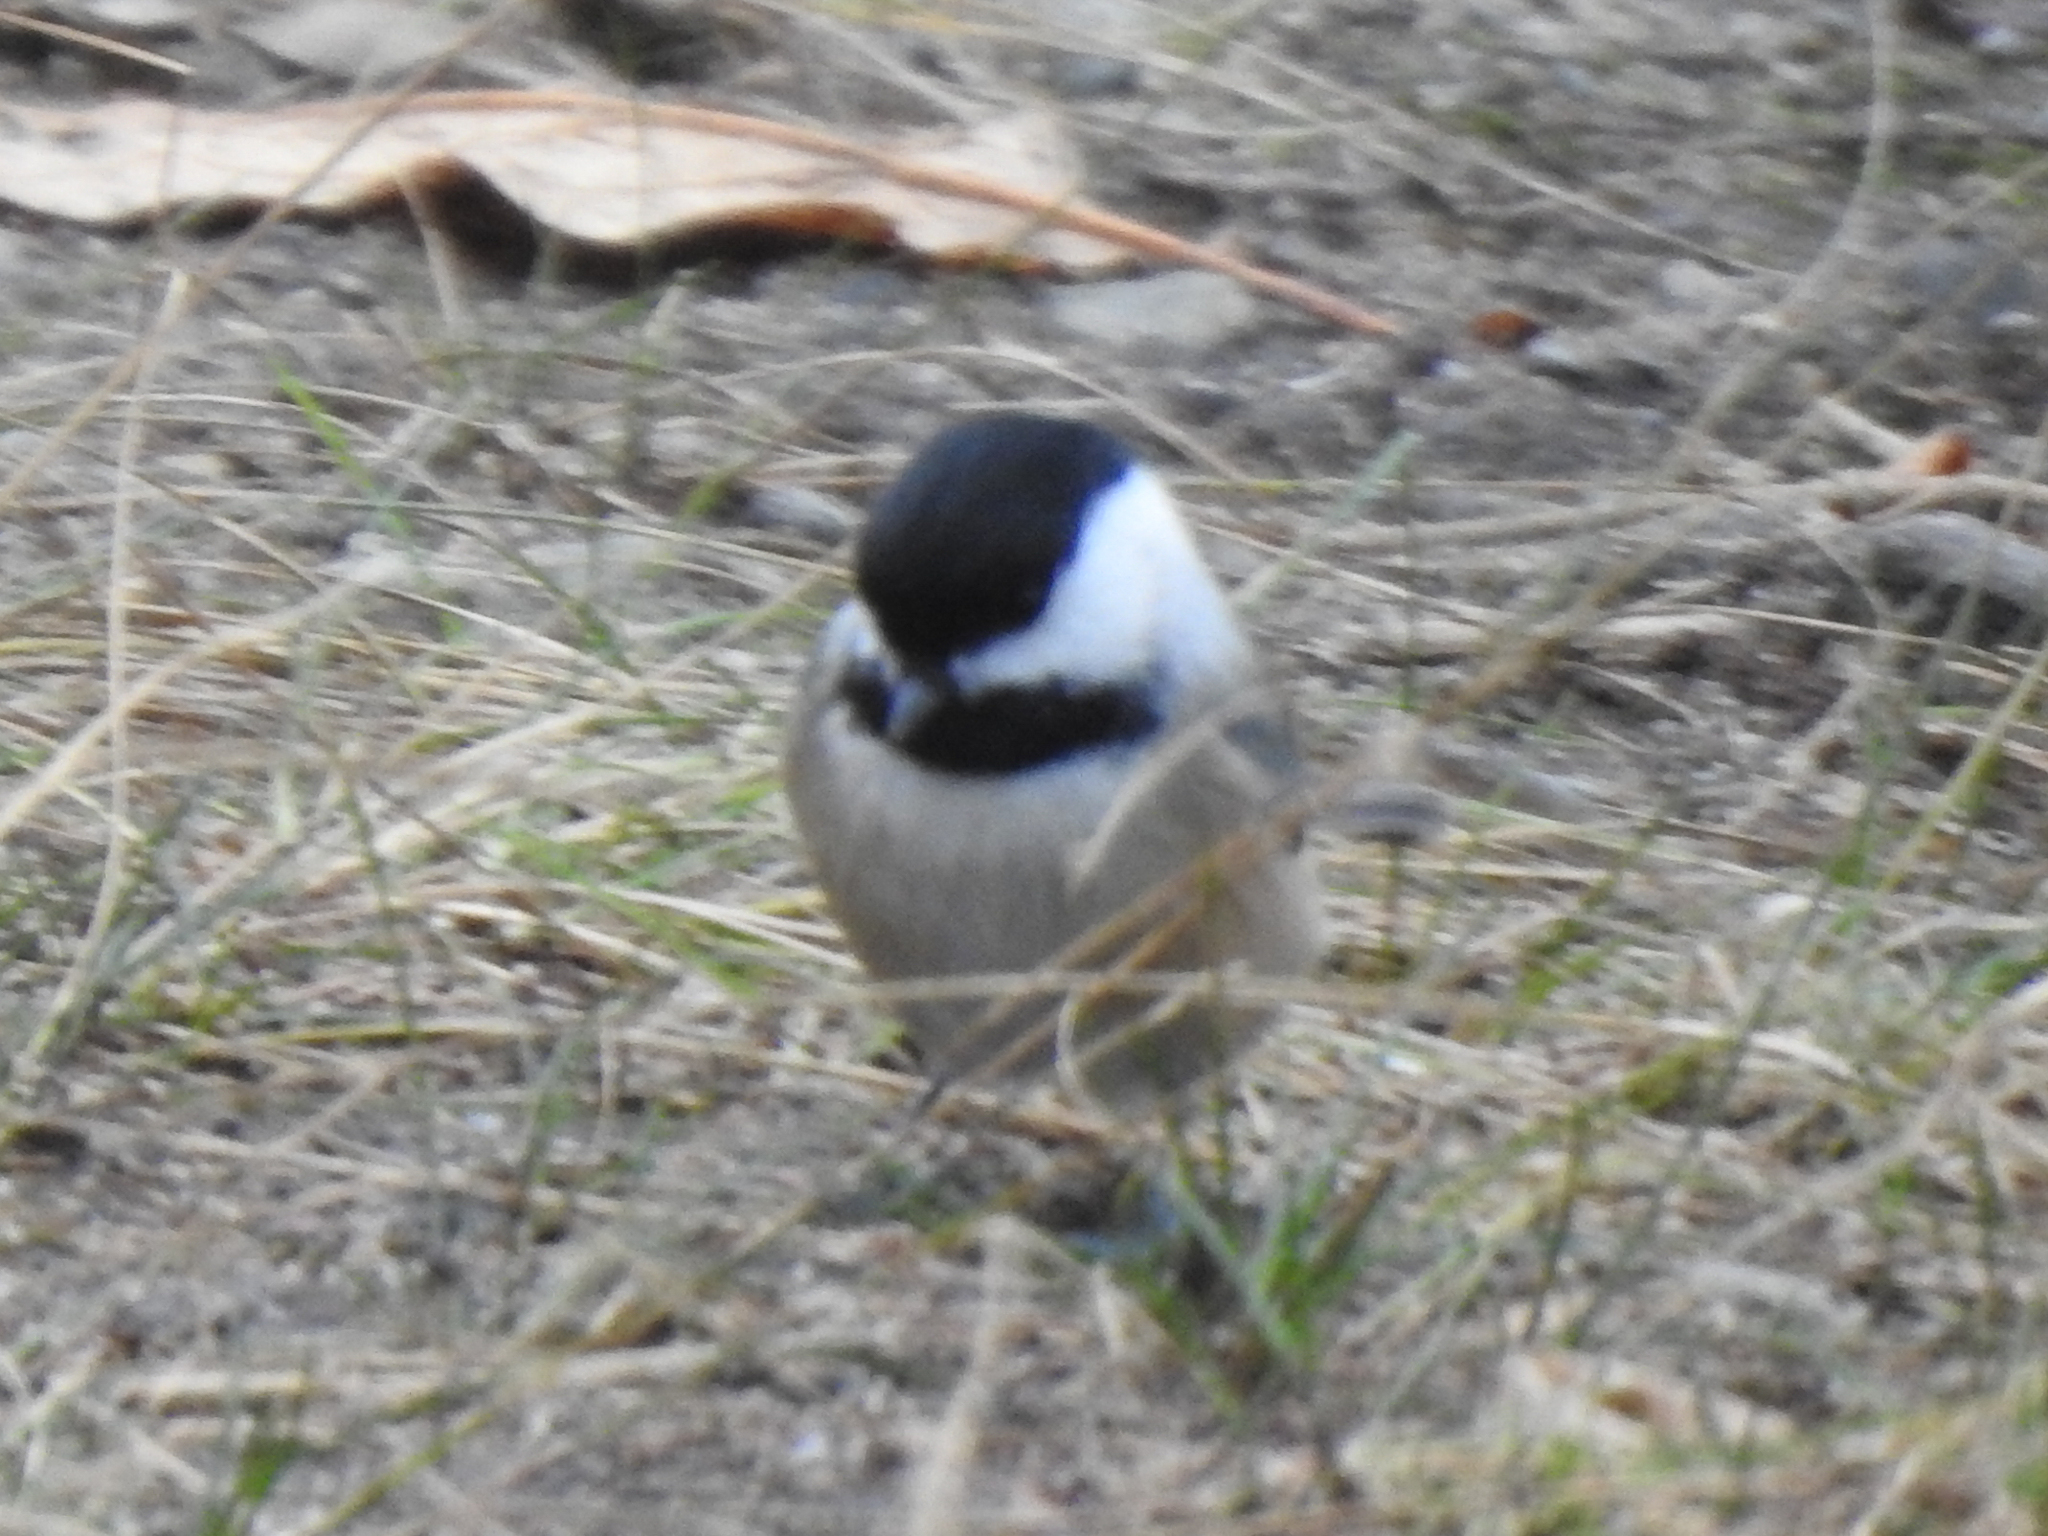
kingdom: Animalia
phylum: Chordata
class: Aves
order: Passeriformes
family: Paridae
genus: Poecile
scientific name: Poecile atricapillus
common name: Black-capped chickadee
